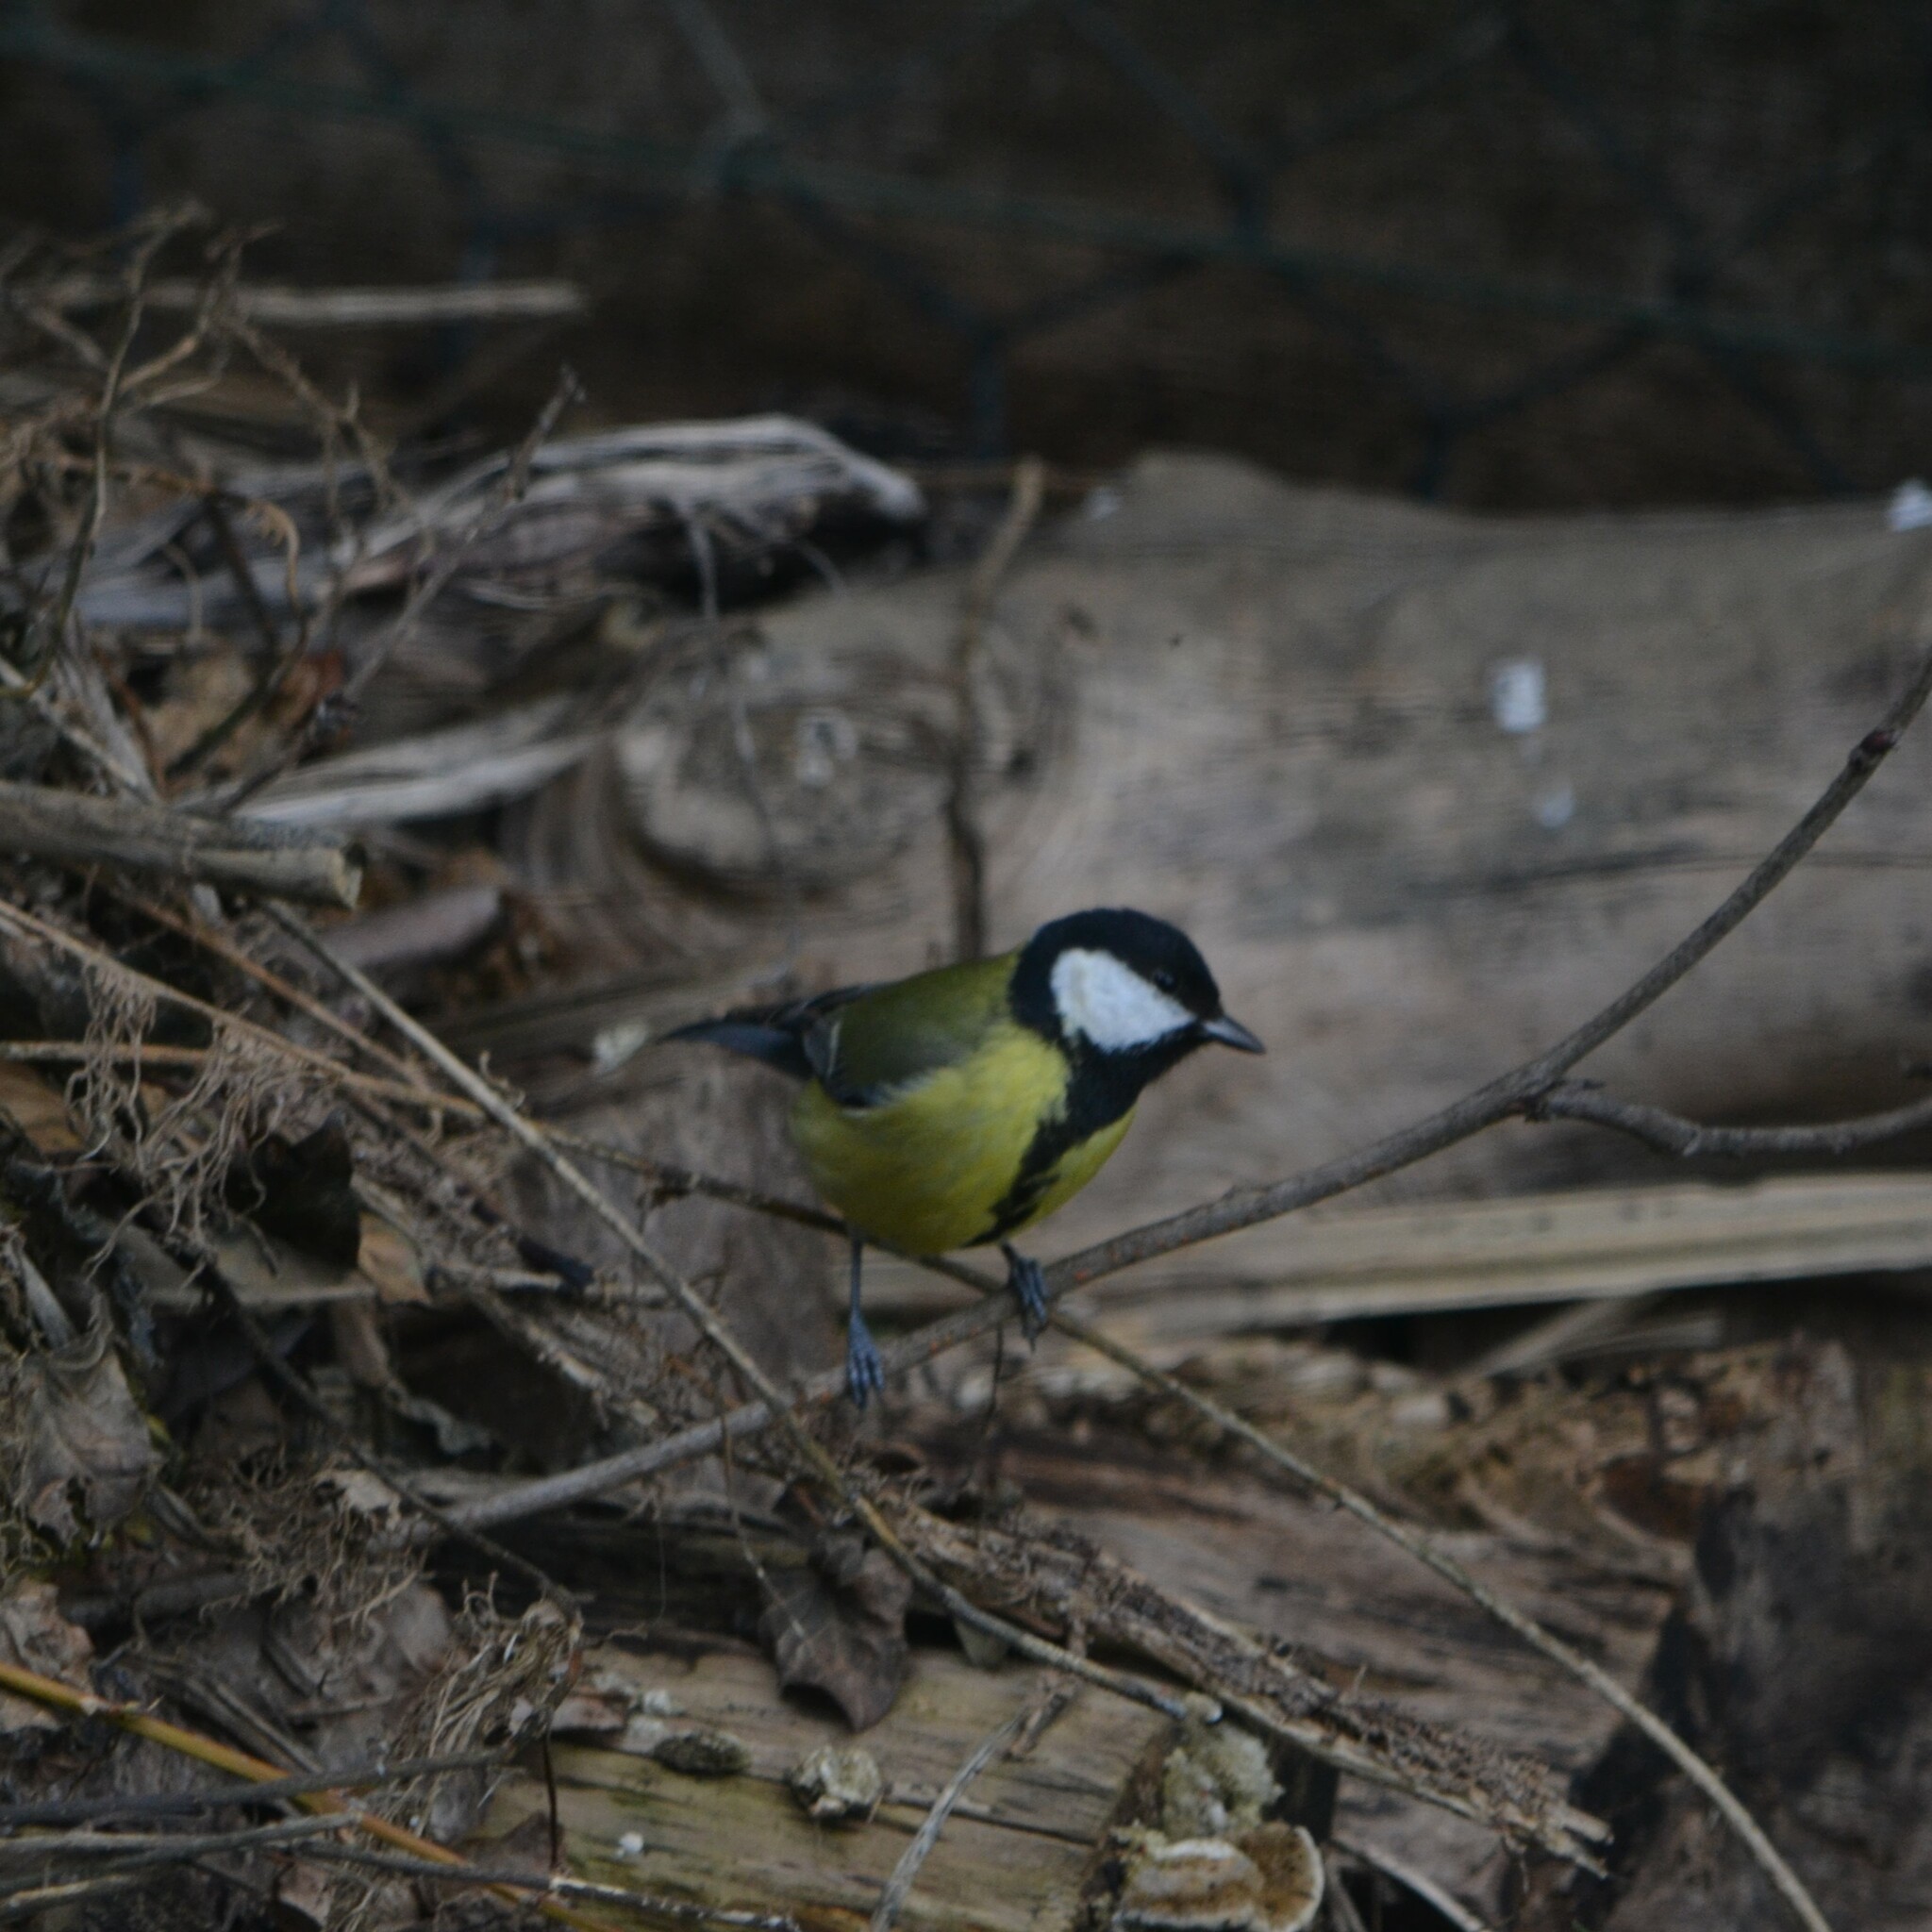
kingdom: Animalia
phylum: Chordata
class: Aves
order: Passeriformes
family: Paridae
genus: Parus
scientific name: Parus major
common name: Great tit
